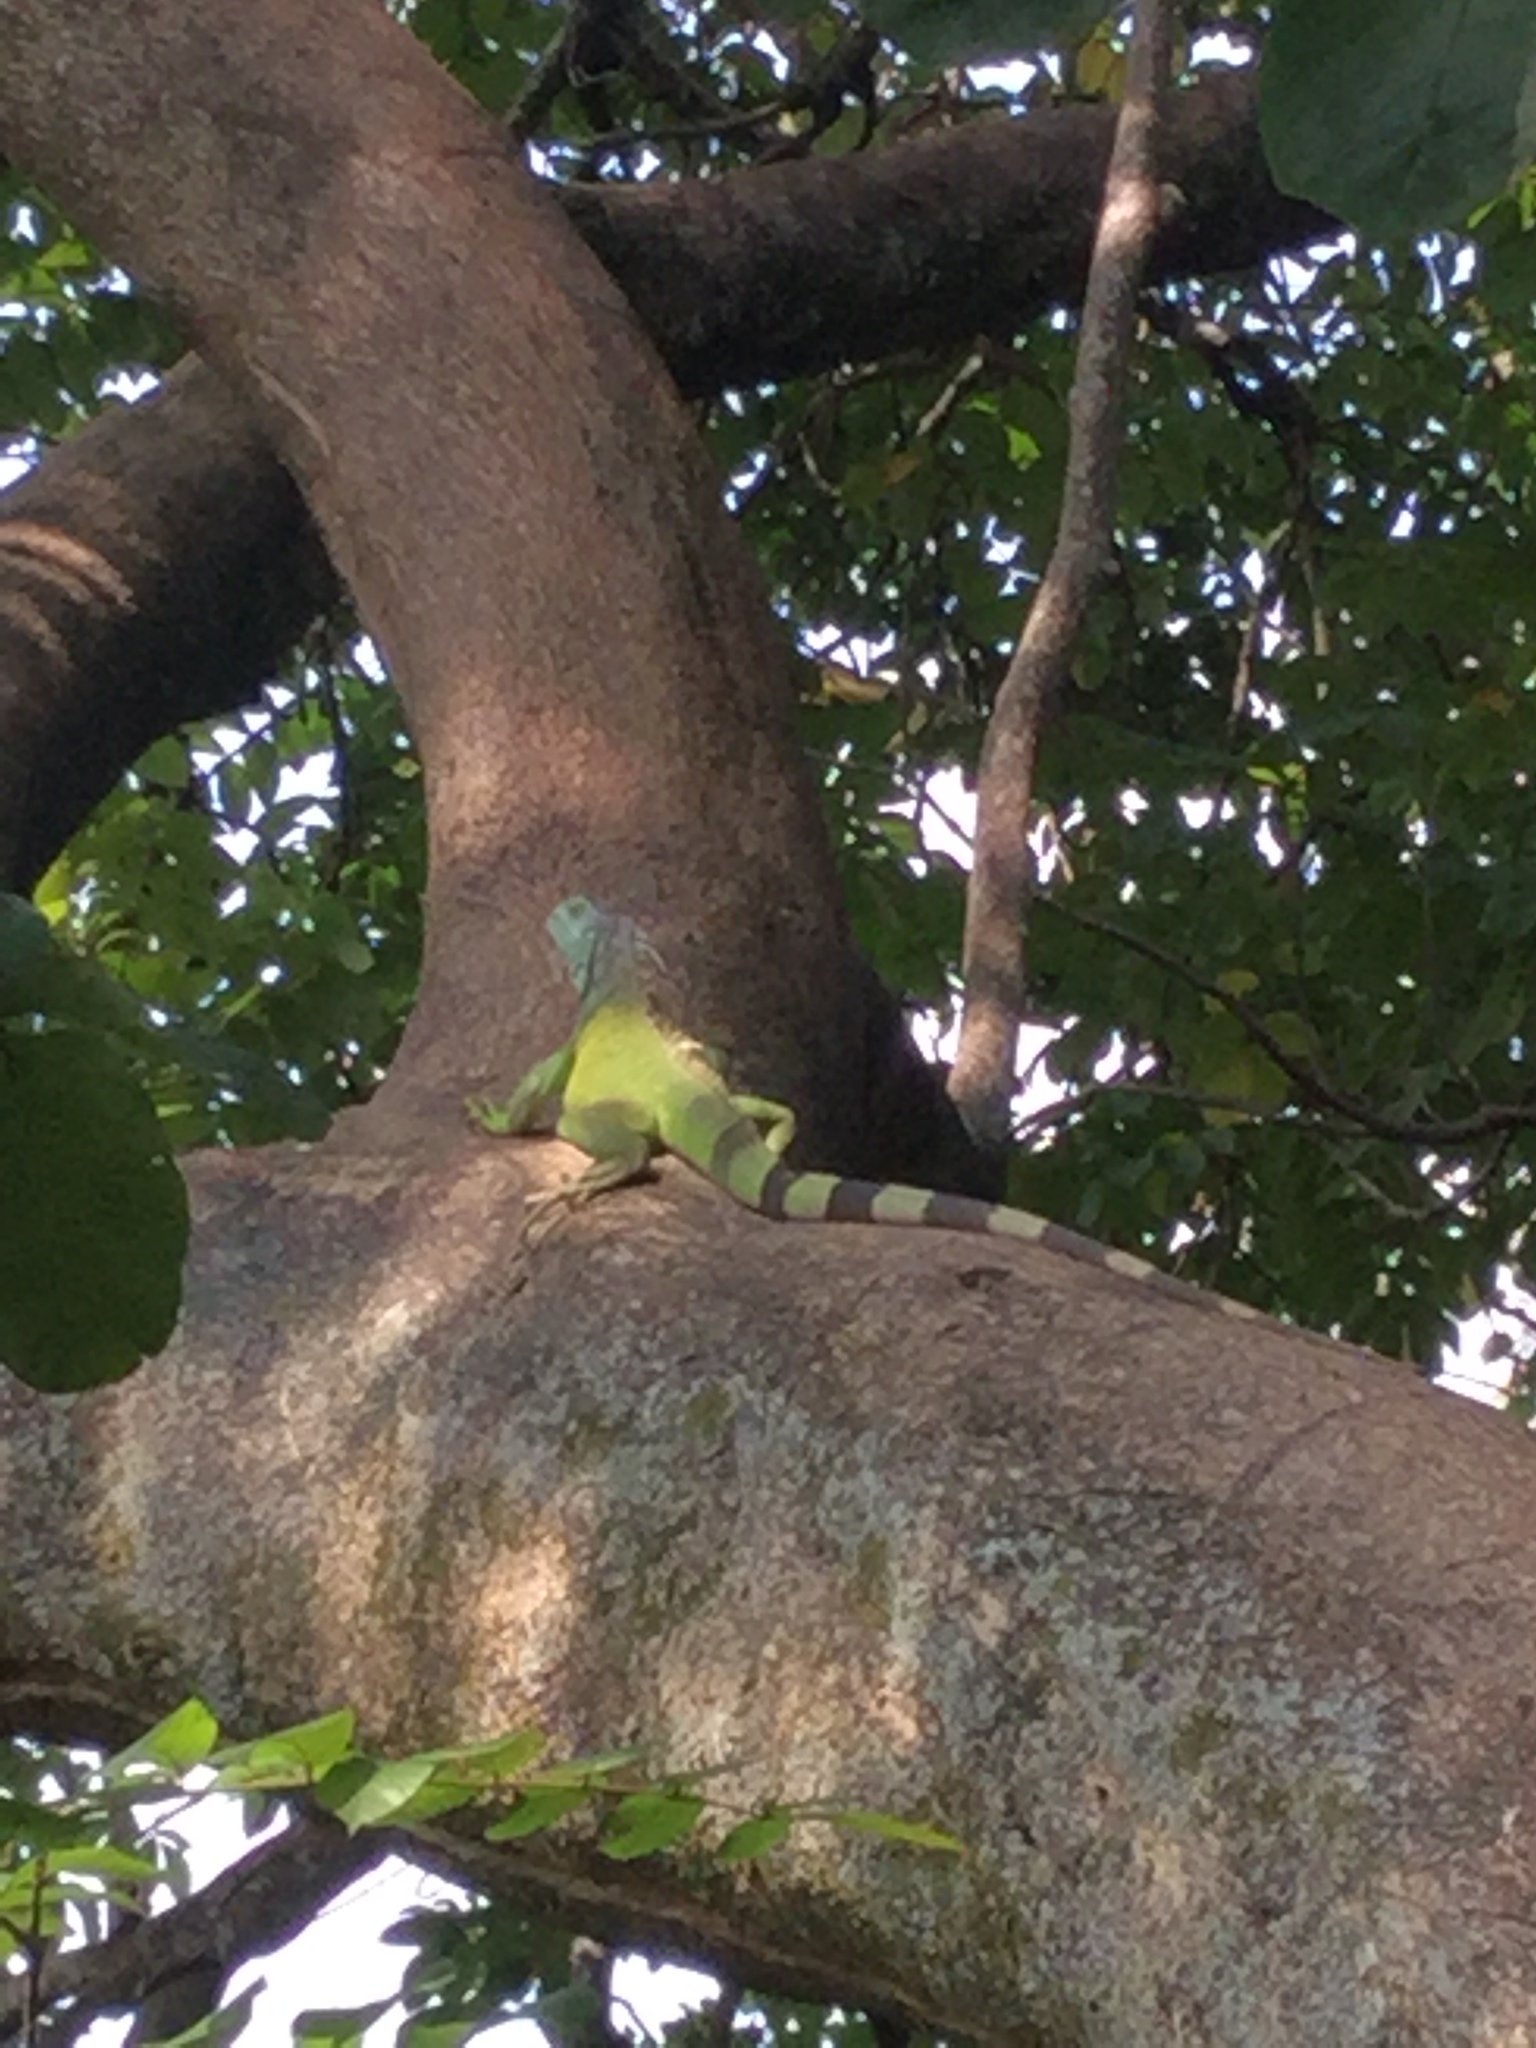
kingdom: Animalia
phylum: Chordata
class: Squamata
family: Iguanidae
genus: Iguana
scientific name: Iguana iguana
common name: Green iguana
